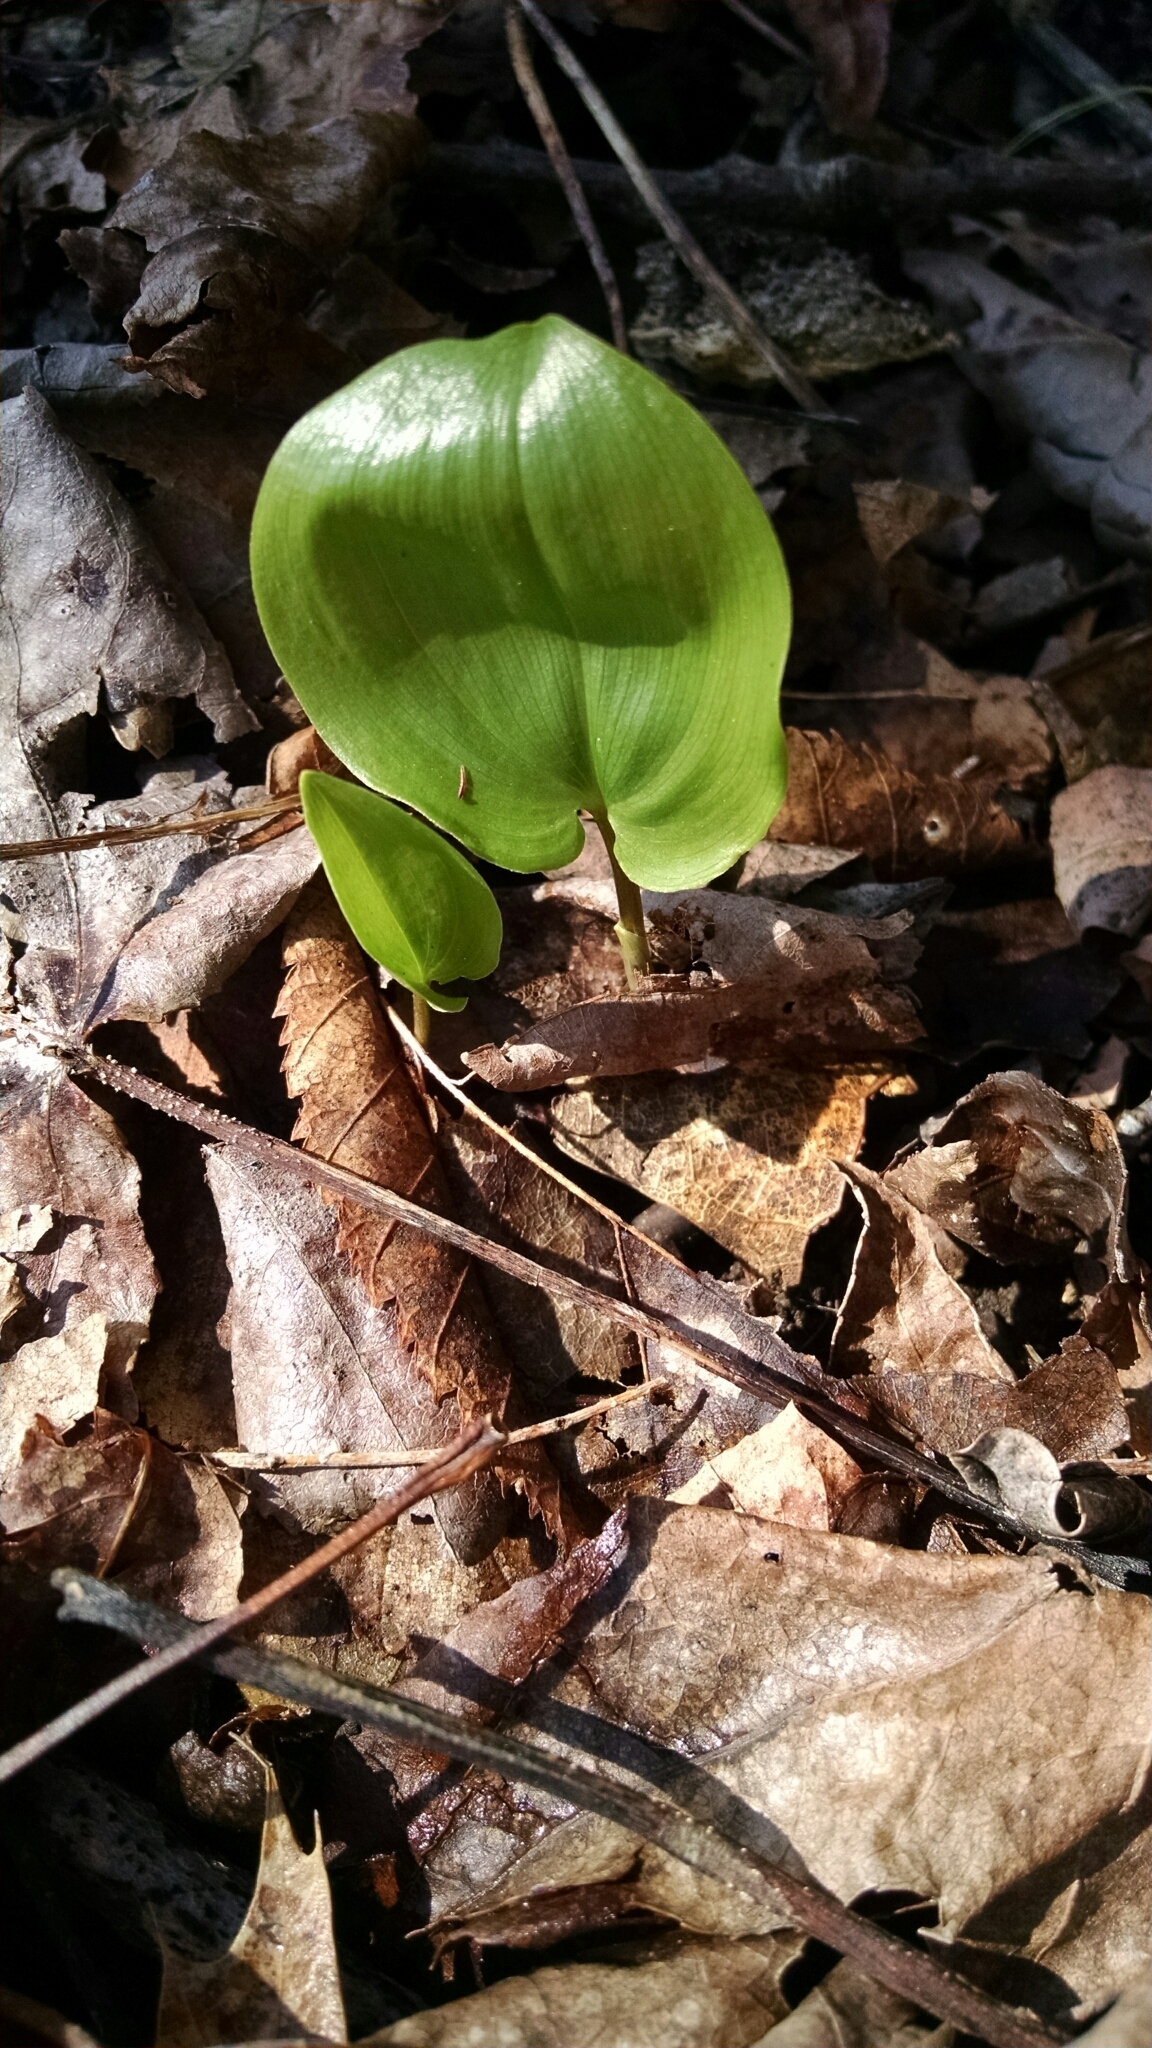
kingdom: Plantae
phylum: Tracheophyta
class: Liliopsida
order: Asparagales
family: Asparagaceae
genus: Maianthemum
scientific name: Maianthemum canadense
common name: False lily-of-the-valley
